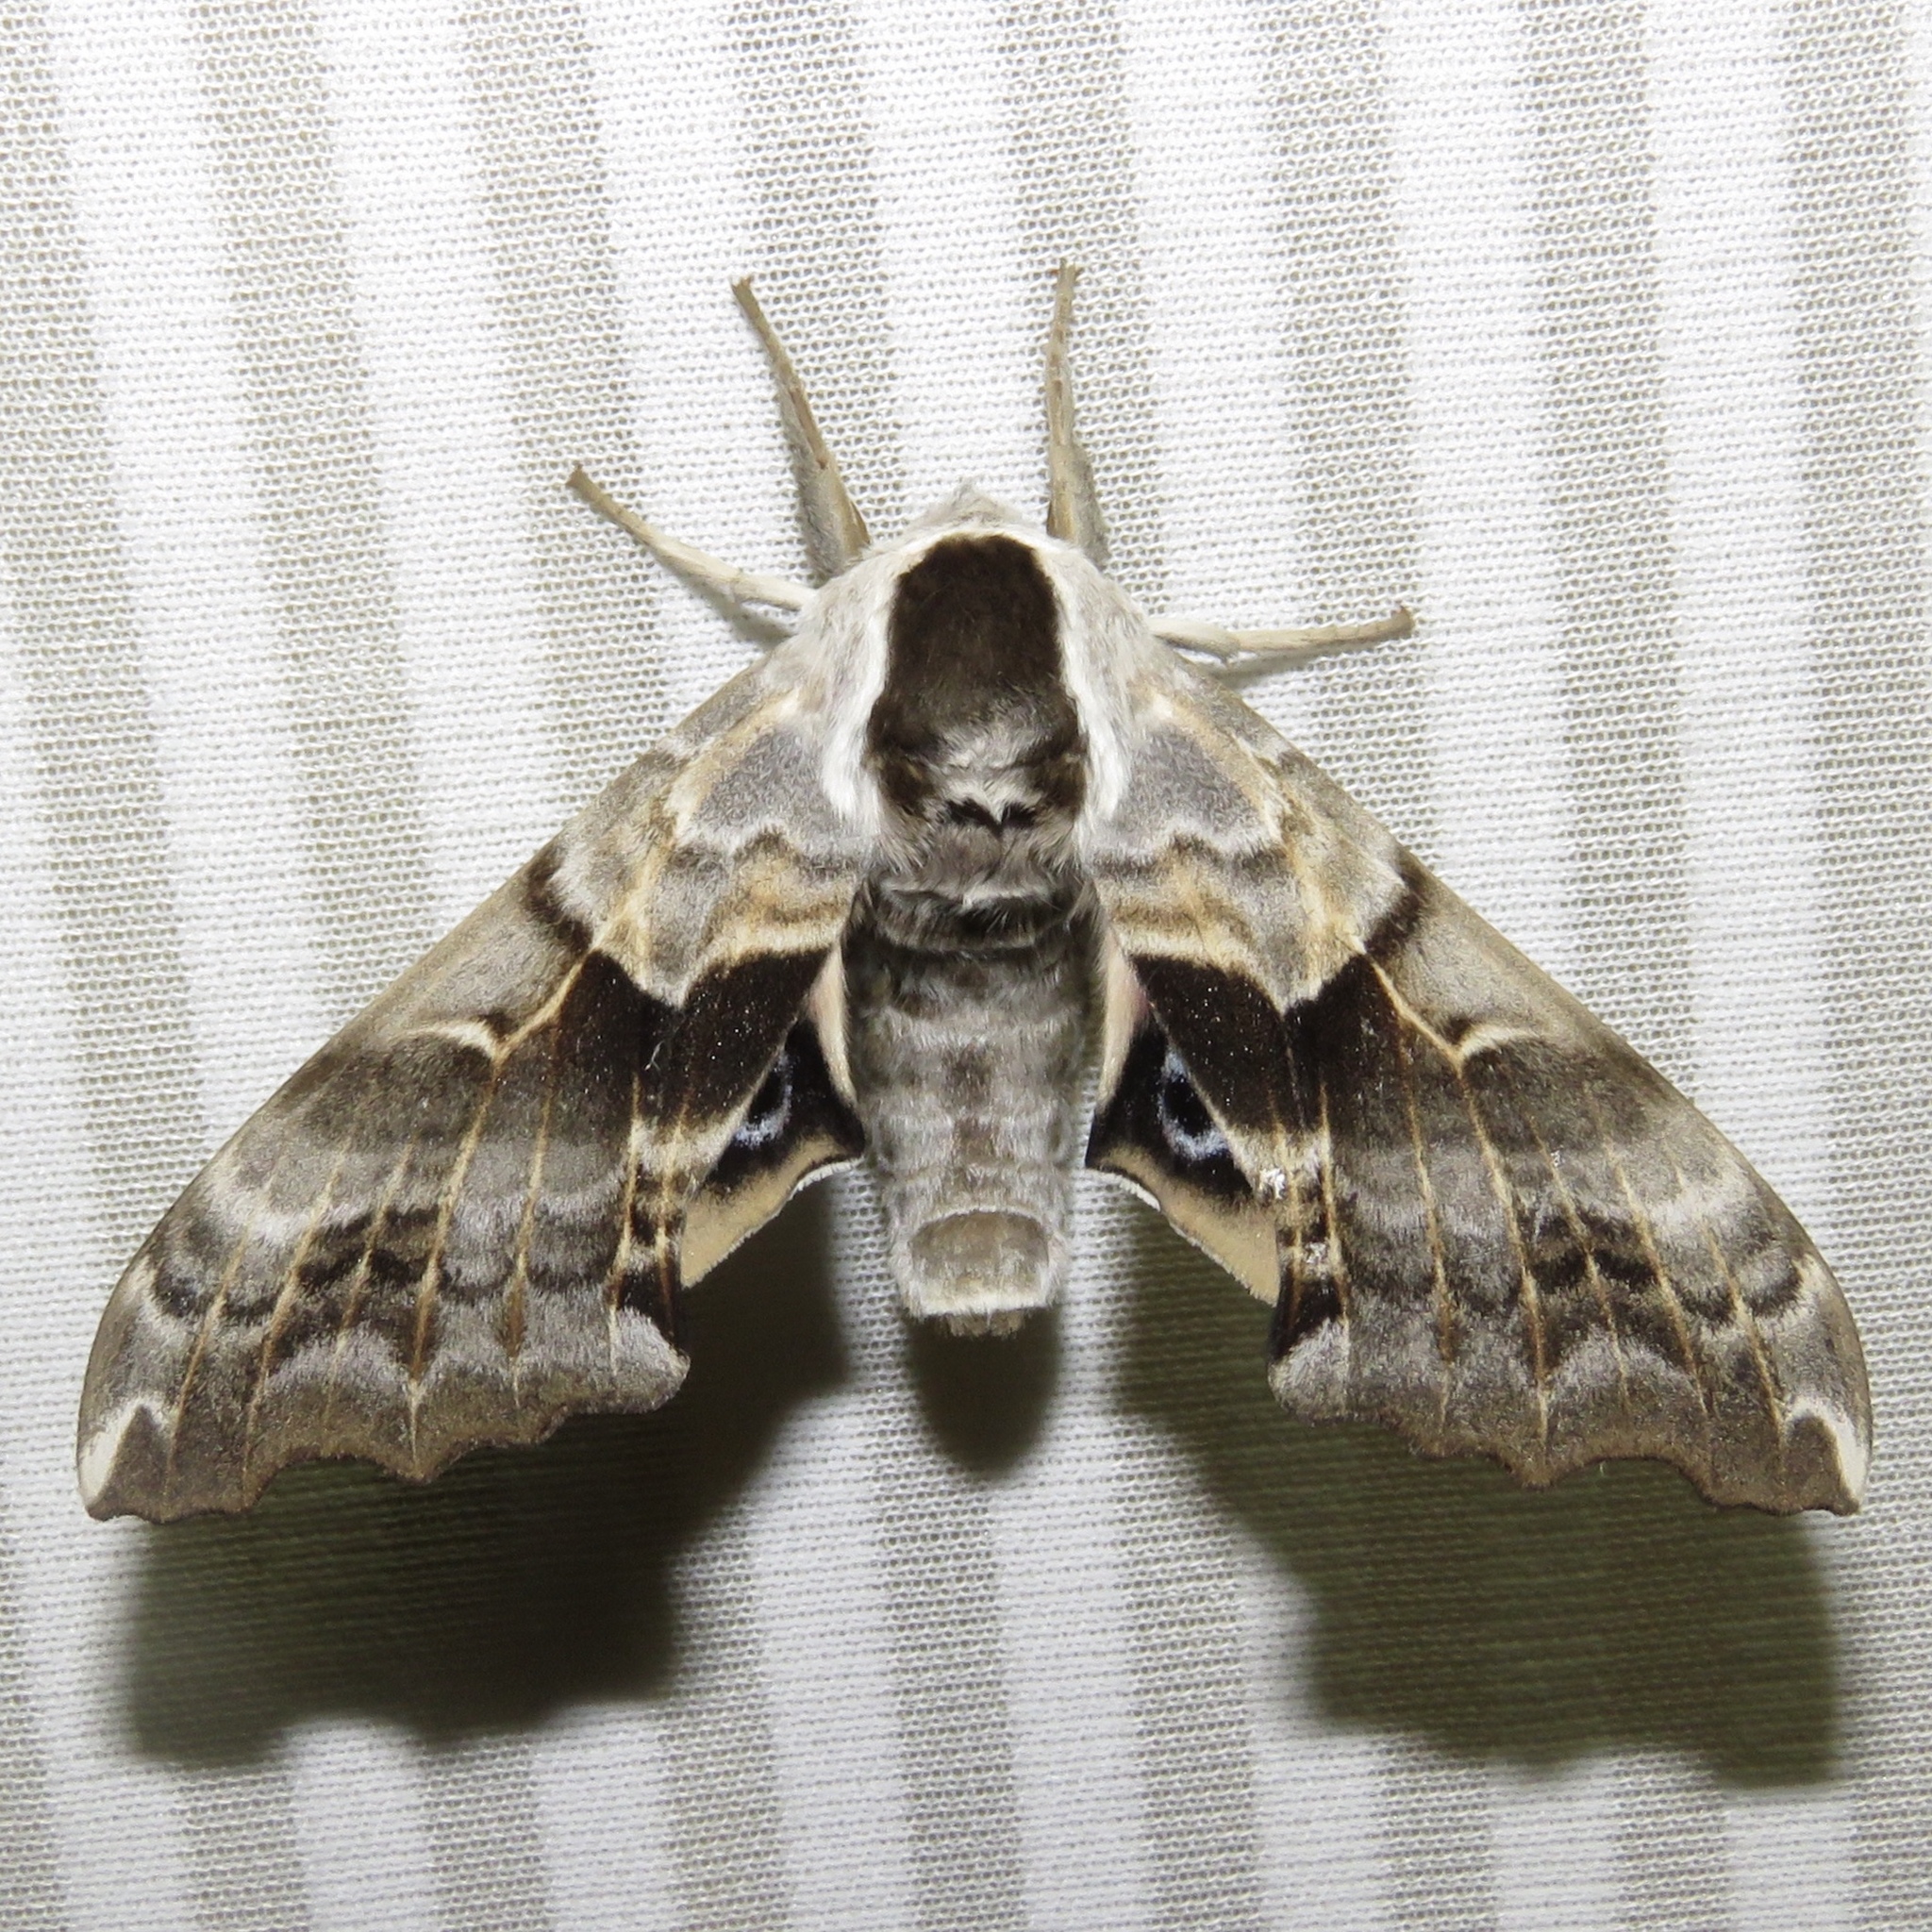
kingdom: Animalia
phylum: Arthropoda
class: Insecta
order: Lepidoptera
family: Sphingidae
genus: Smerinthus
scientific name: Smerinthus cerisyi
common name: Cerisy's sphinx moth
